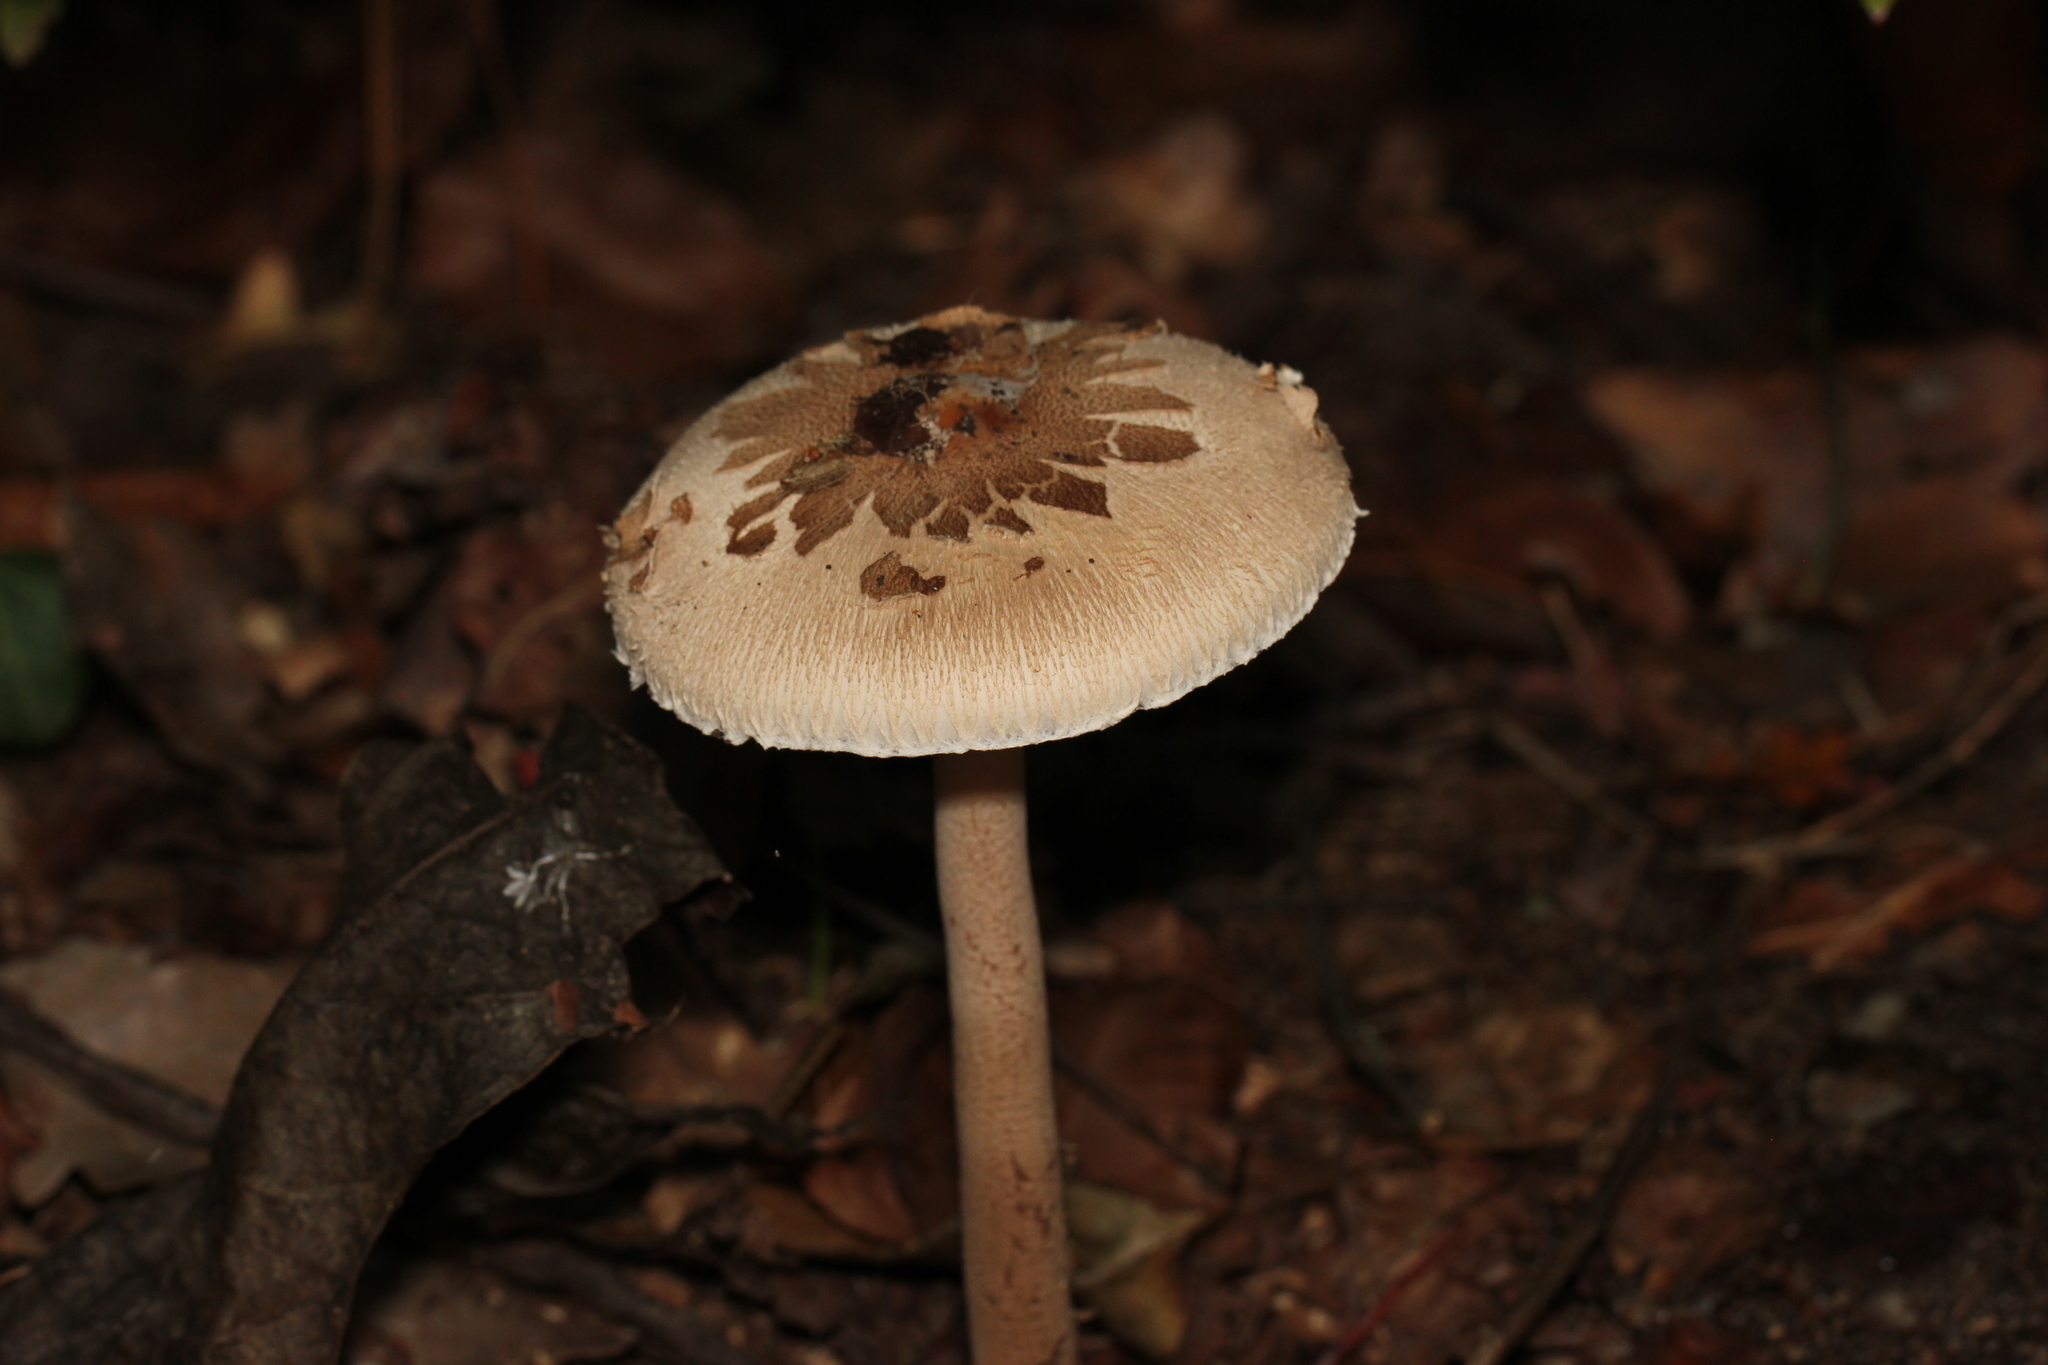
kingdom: Fungi
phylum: Basidiomycota
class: Agaricomycetes
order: Agaricales
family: Agaricaceae
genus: Macrolepiota
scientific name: Macrolepiota procera
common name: Parasol
